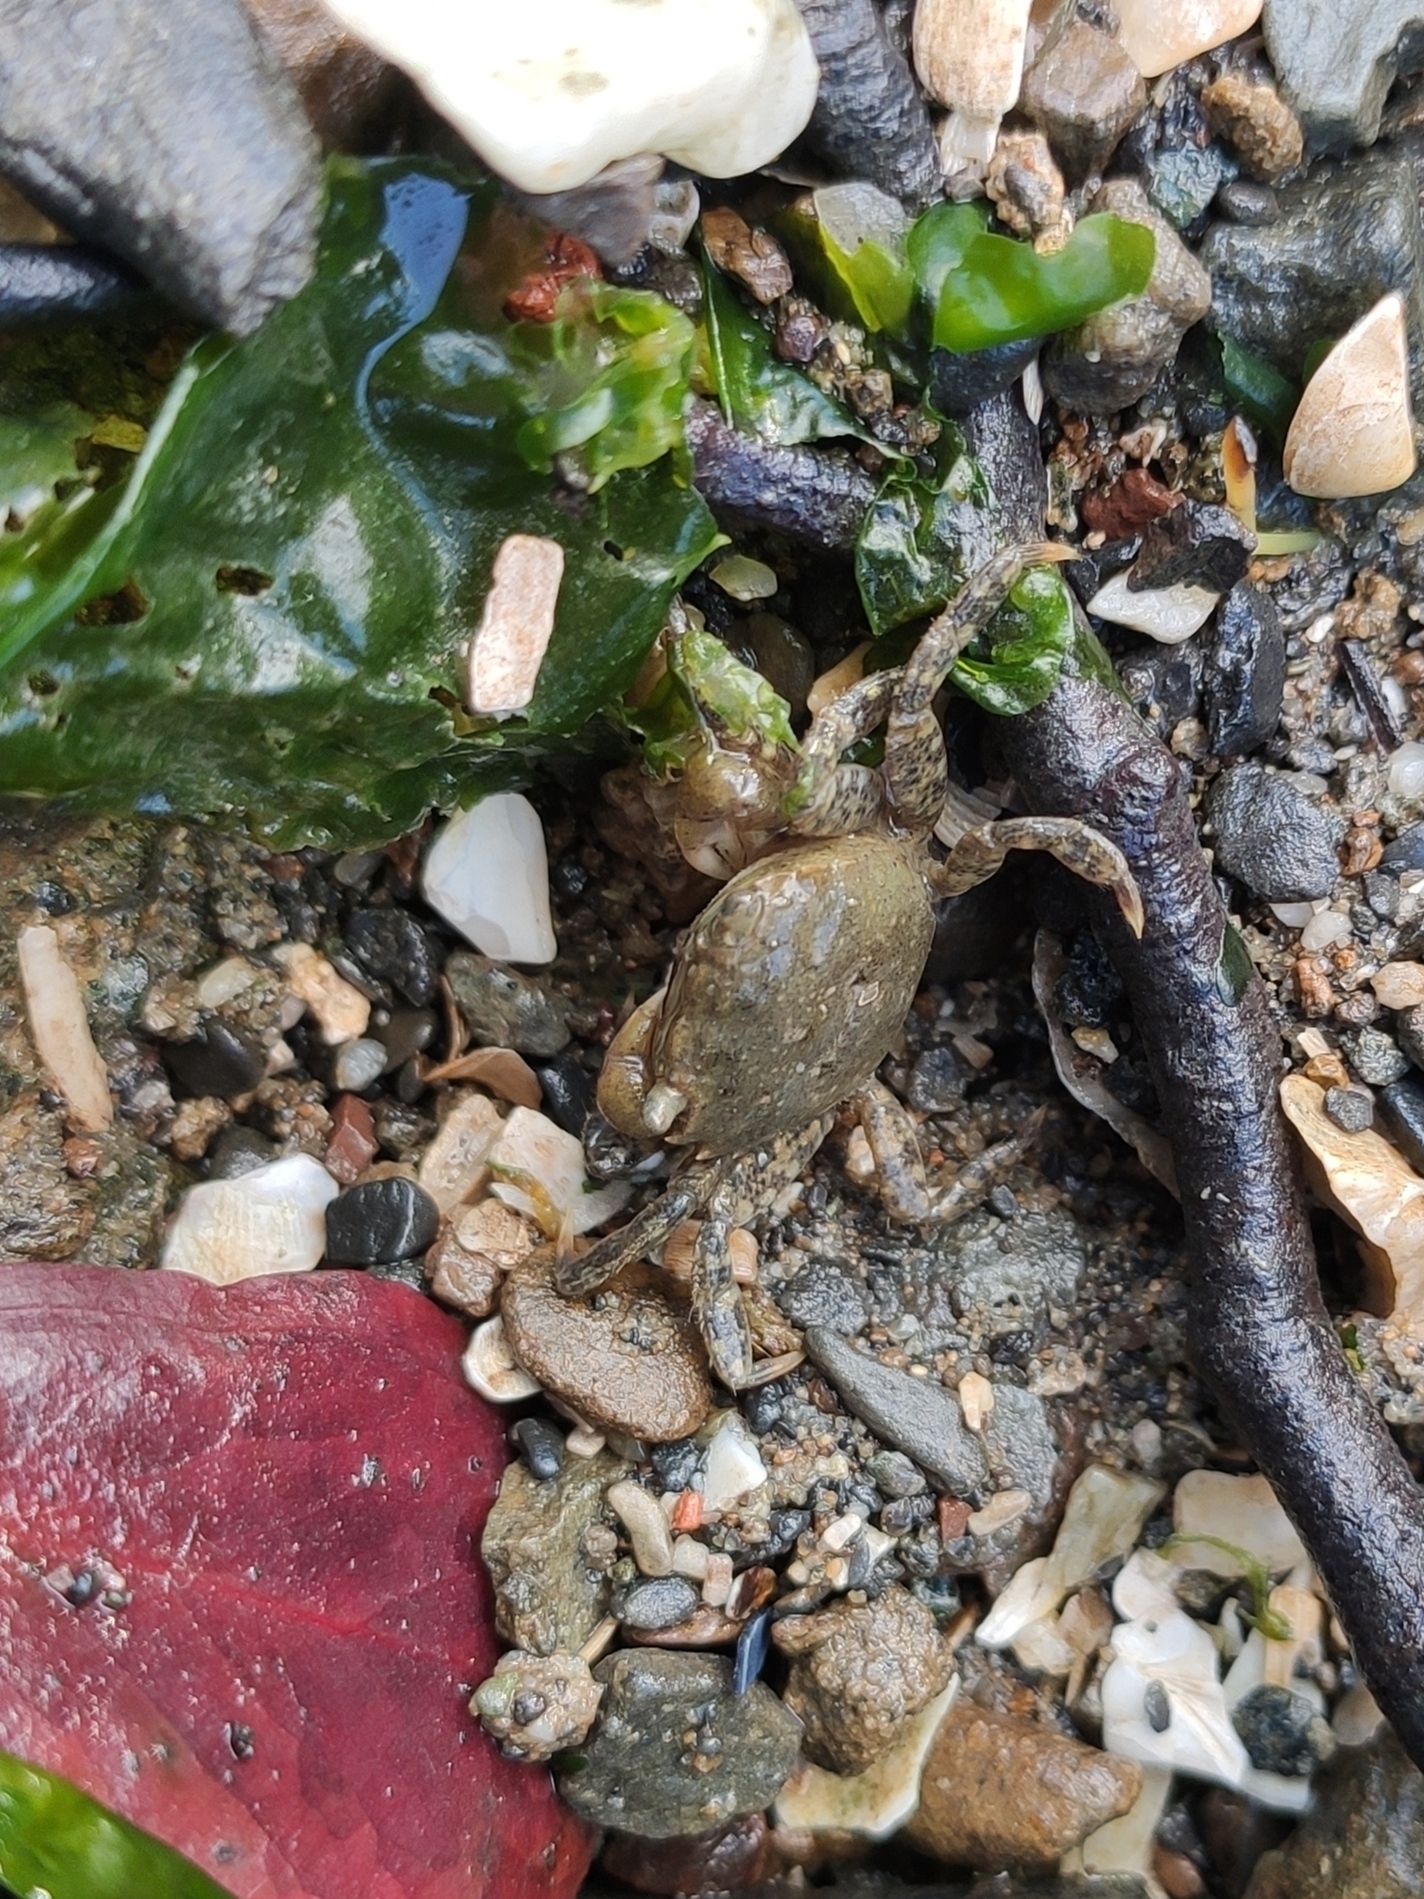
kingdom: Animalia
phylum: Arthropoda
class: Malacostraca
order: Decapoda
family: Varunidae
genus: Hemigrapsus
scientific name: Hemigrapsus oregonensis
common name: Yellow shore crab
